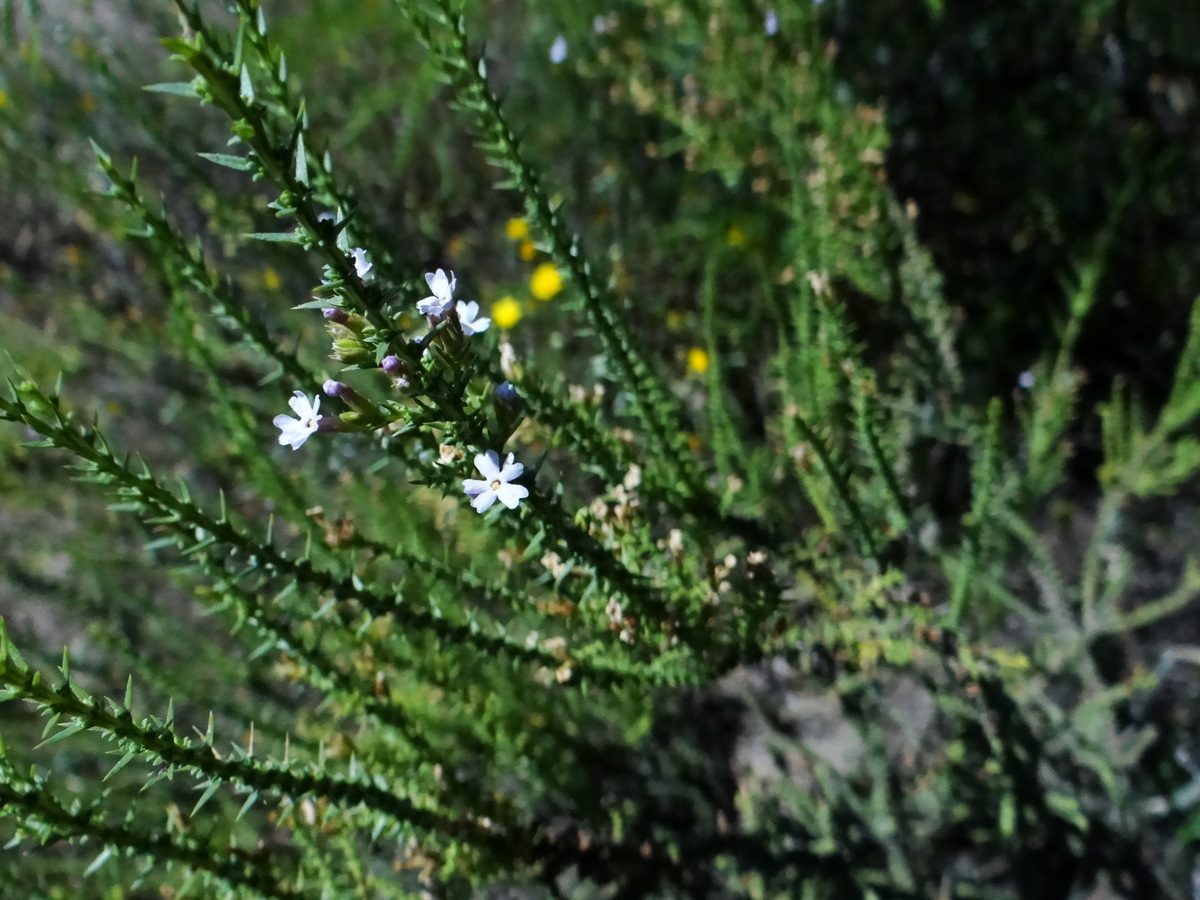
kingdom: Plantae
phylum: Tracheophyta
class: Magnoliopsida
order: Lamiales
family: Verbenaceae
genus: Junellia
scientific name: Junellia seriphioides
